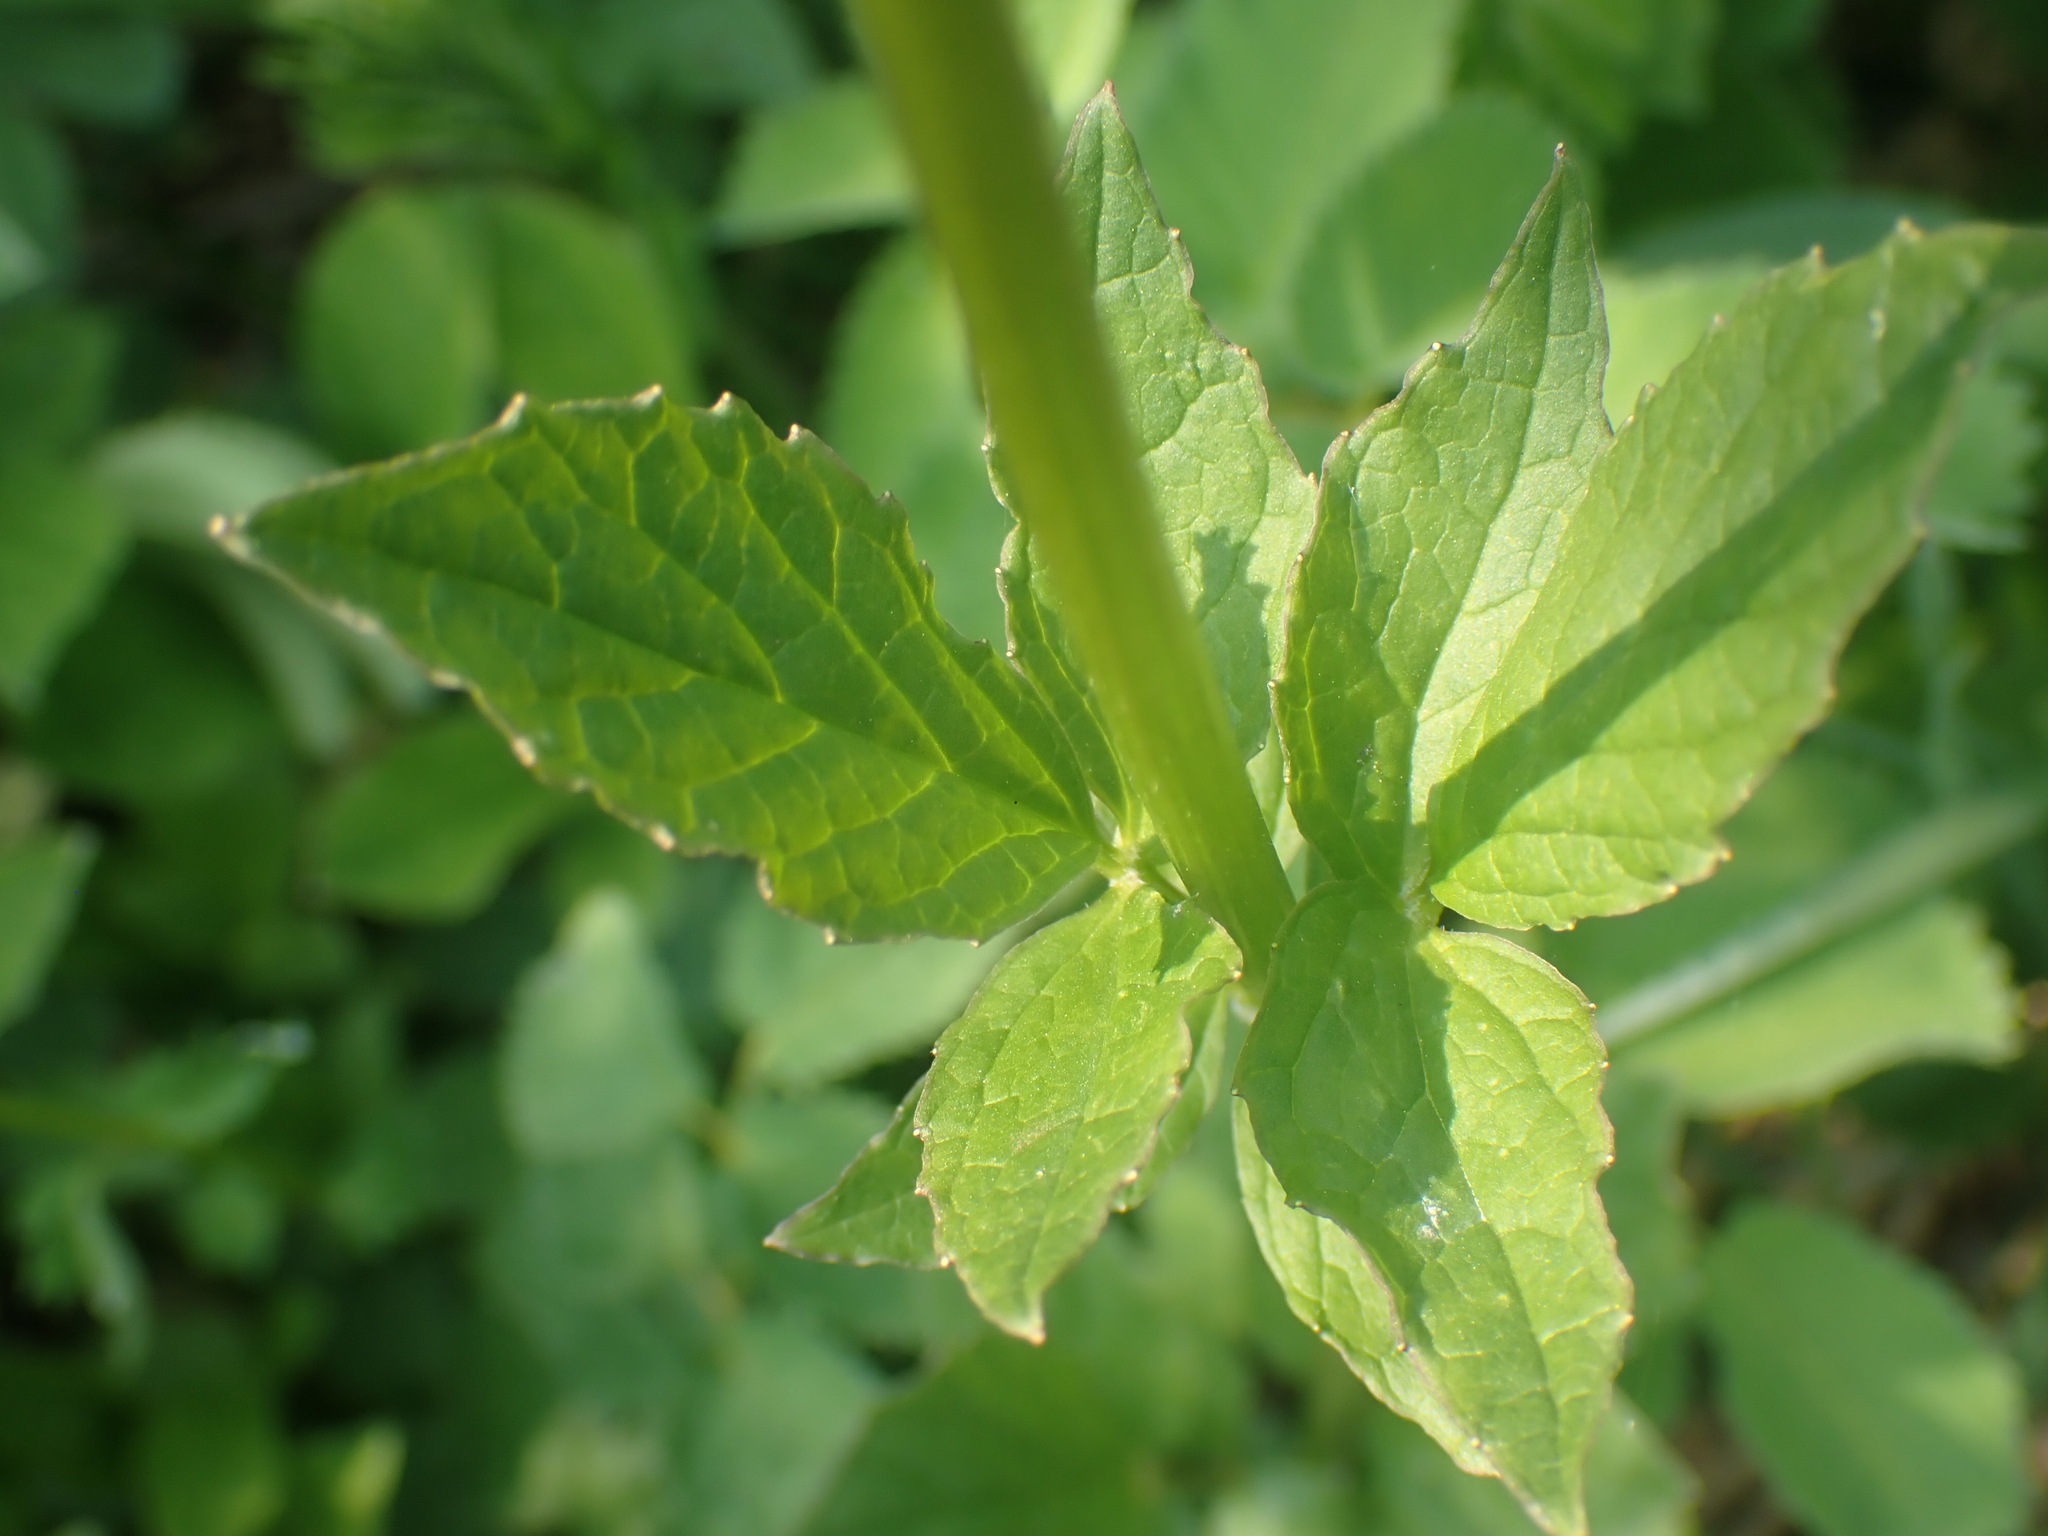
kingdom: Plantae
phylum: Tracheophyta
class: Magnoliopsida
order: Dipsacales
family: Caprifoliaceae
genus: Valeriana
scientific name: Valeriana sitchensis
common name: Pacific valerian
